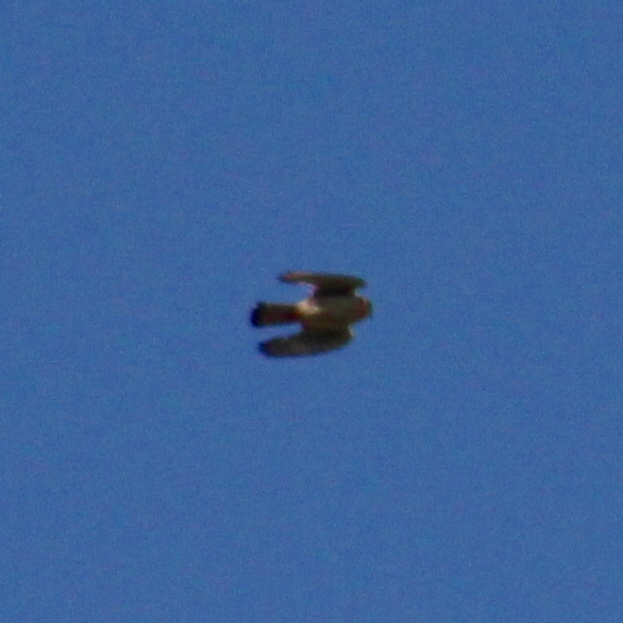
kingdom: Animalia
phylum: Chordata
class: Aves
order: Falconiformes
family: Falconidae
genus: Falco
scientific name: Falco sparverius
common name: American kestrel
